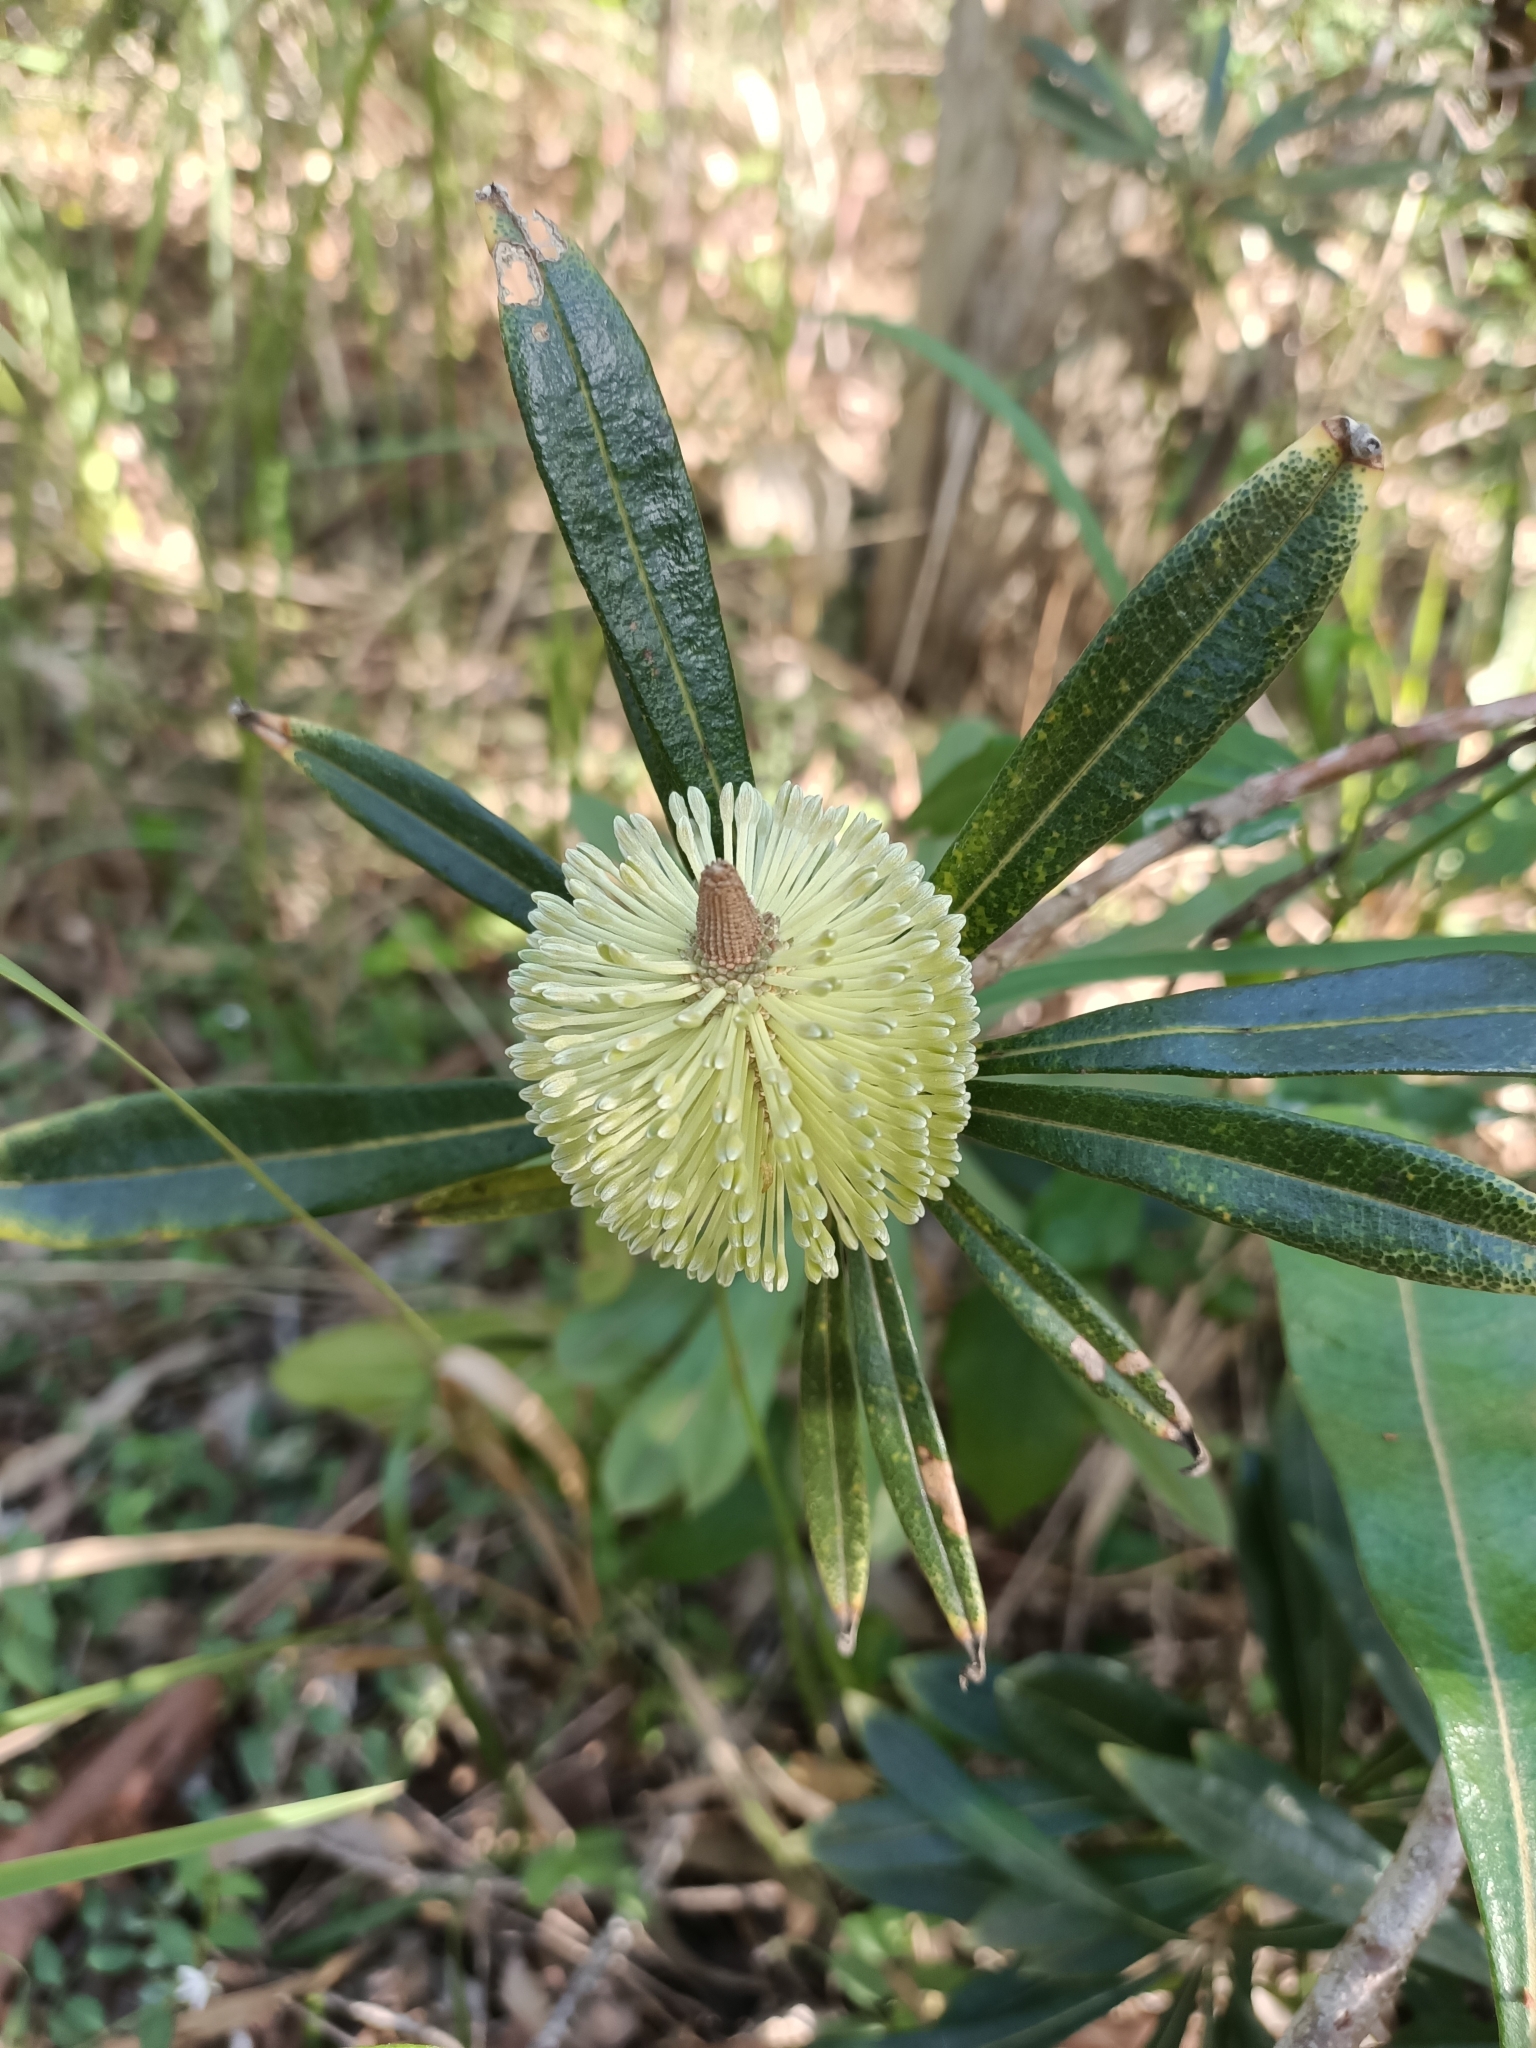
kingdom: Plantae
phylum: Tracheophyta
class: Magnoliopsida
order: Proteales
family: Proteaceae
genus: Banksia
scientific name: Banksia integrifolia
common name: White-honeysuckle
